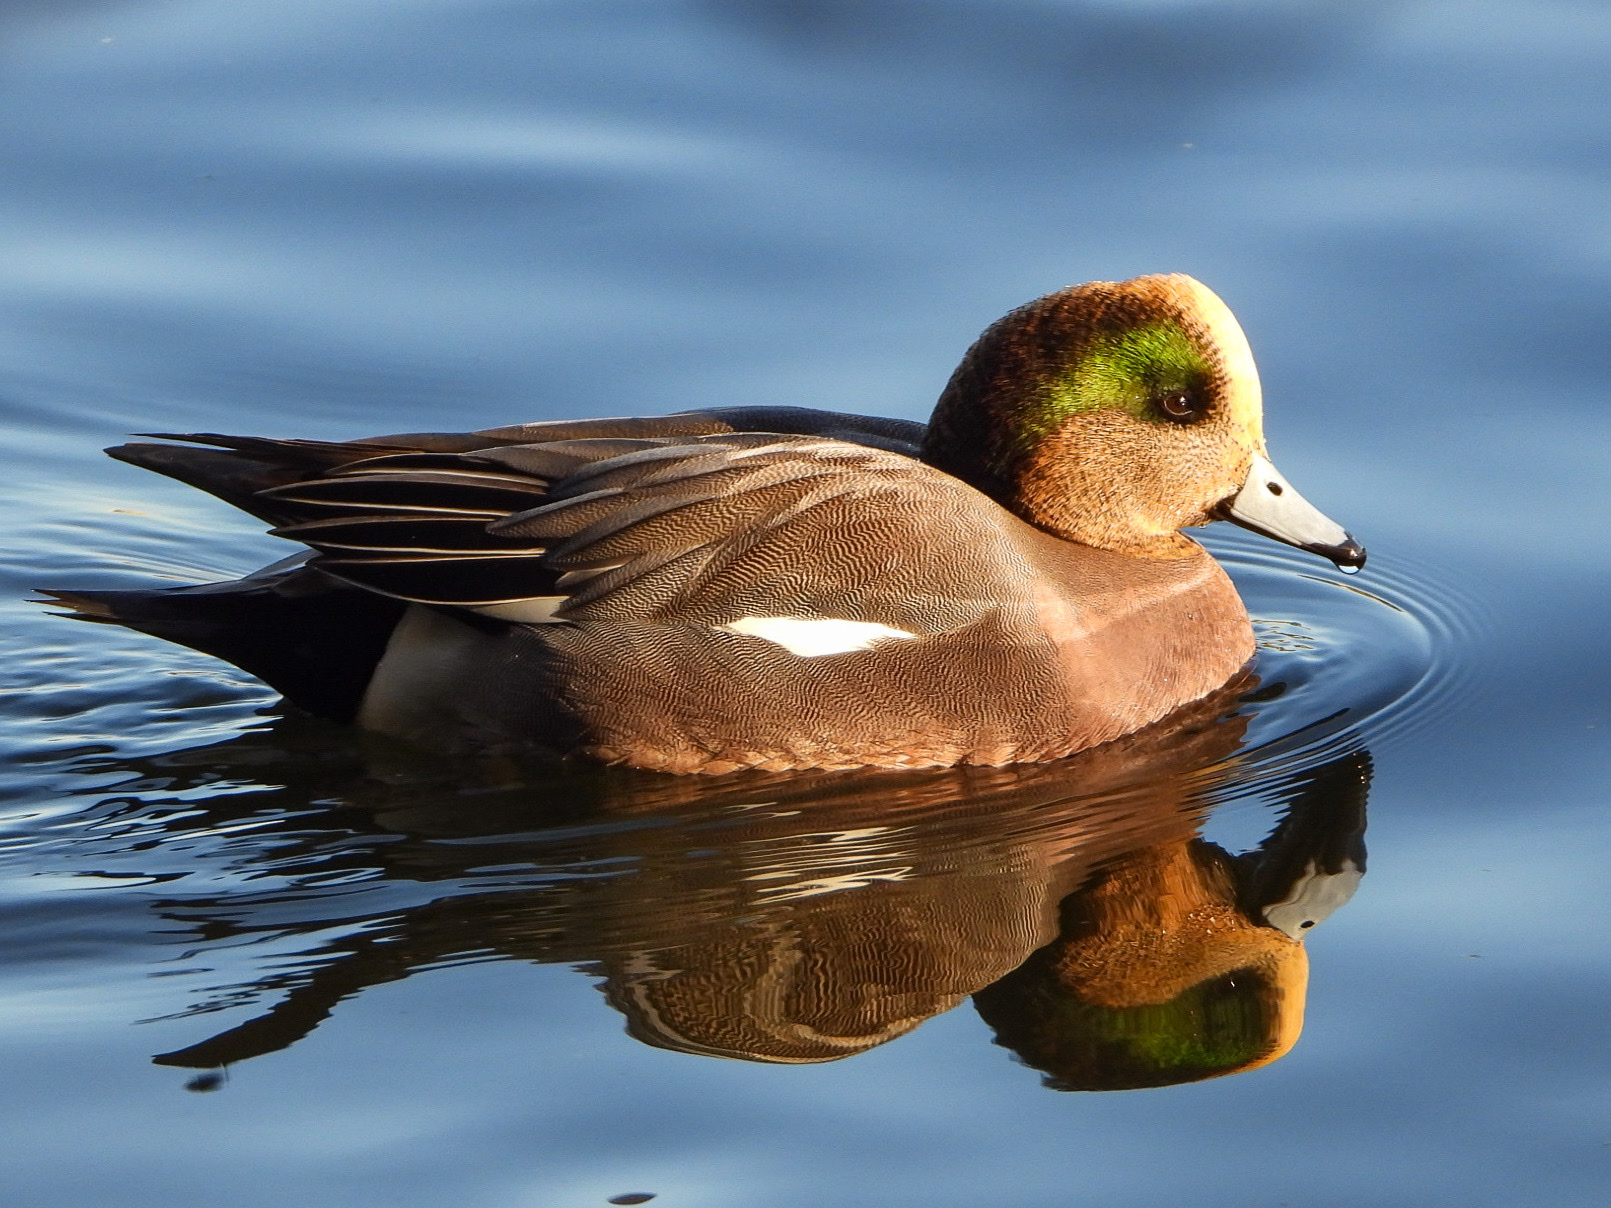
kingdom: Animalia
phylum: Chordata
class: Aves
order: Anseriformes
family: Anatidae
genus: Mareca
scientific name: Mareca
